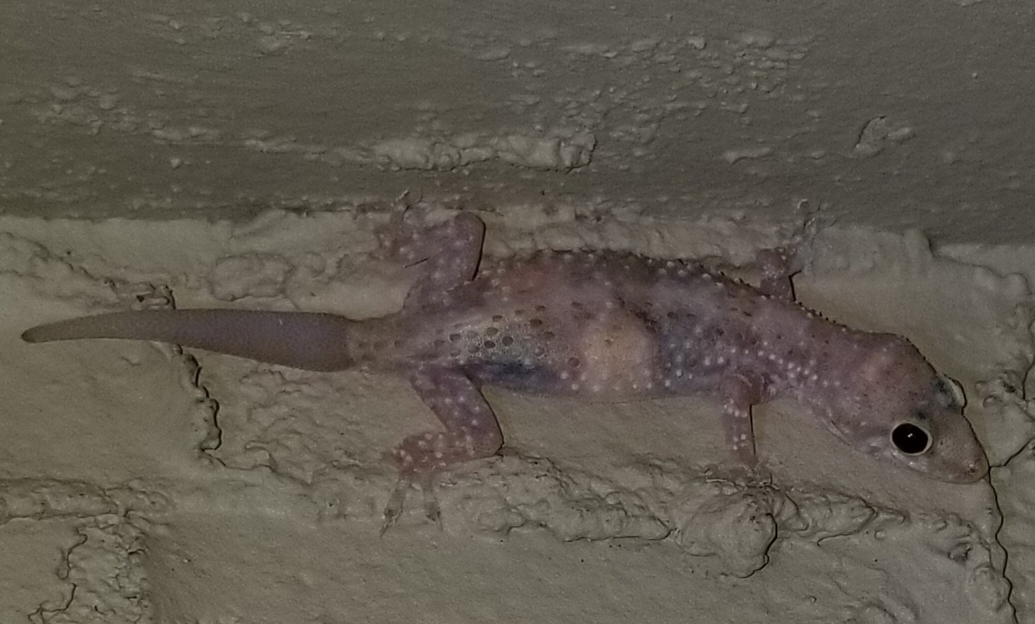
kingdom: Animalia
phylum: Chordata
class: Squamata
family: Gekkonidae
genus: Hemidactylus
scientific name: Hemidactylus turcicus
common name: Turkish gecko
